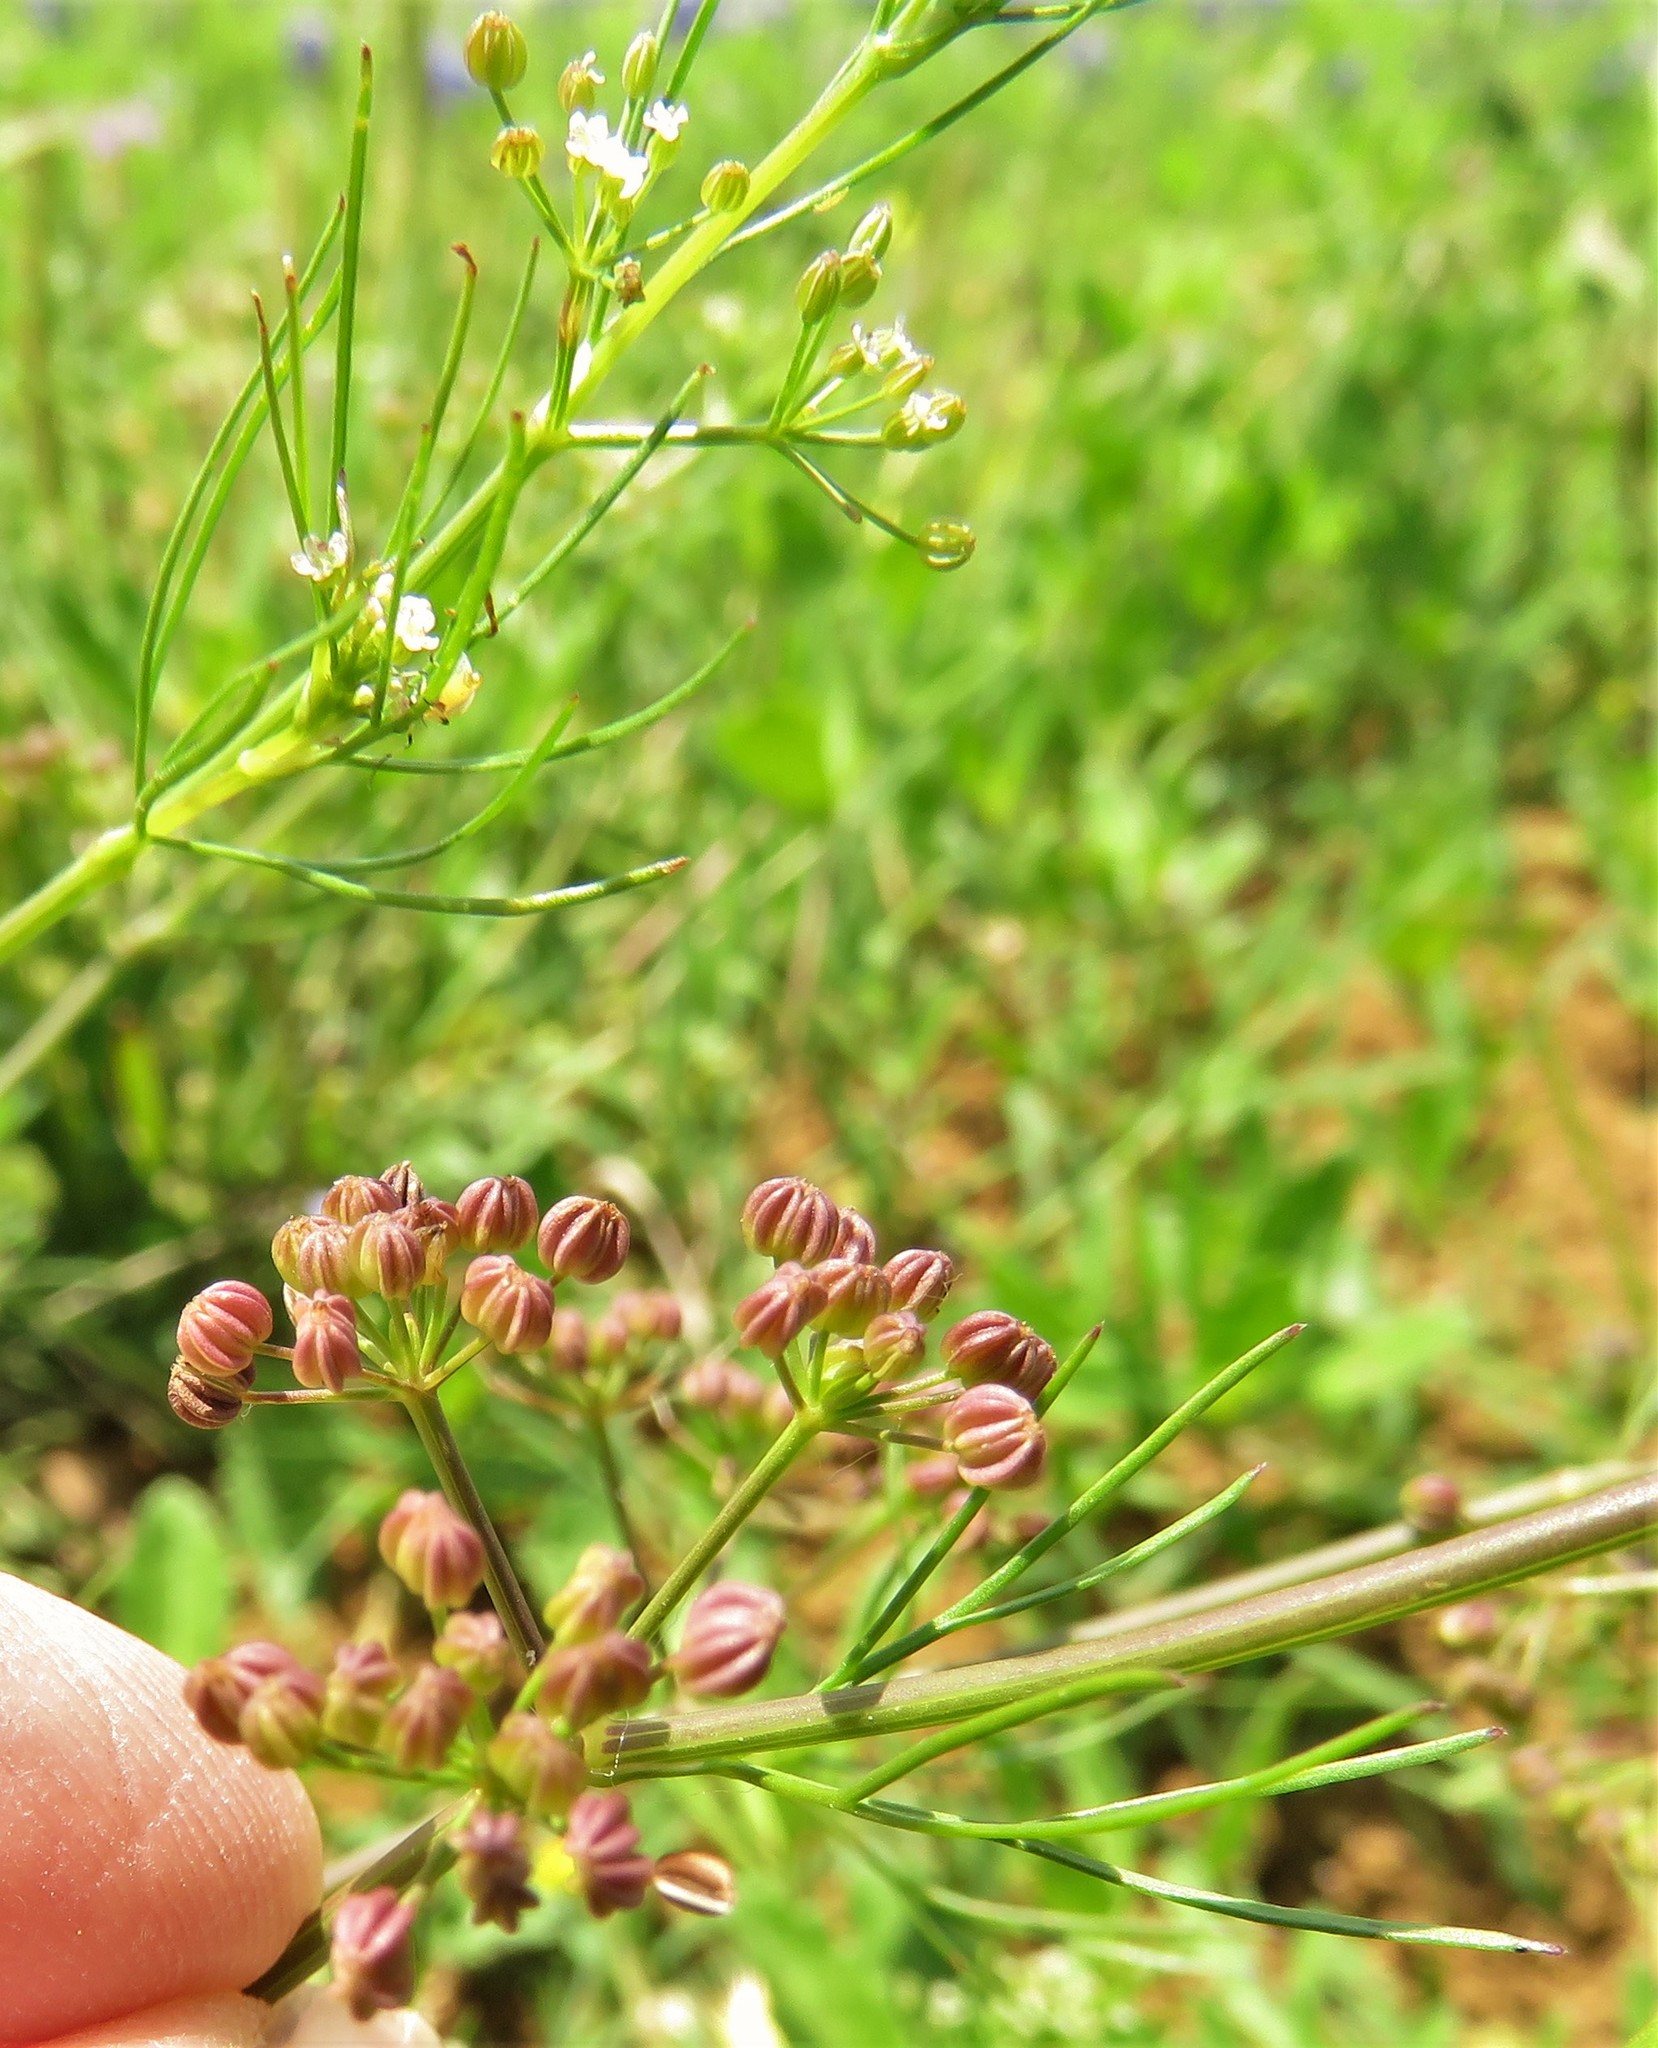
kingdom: Plantae
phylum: Tracheophyta
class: Magnoliopsida
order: Apiales
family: Apiaceae
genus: Cyclospermum
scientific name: Cyclospermum leptophyllum
